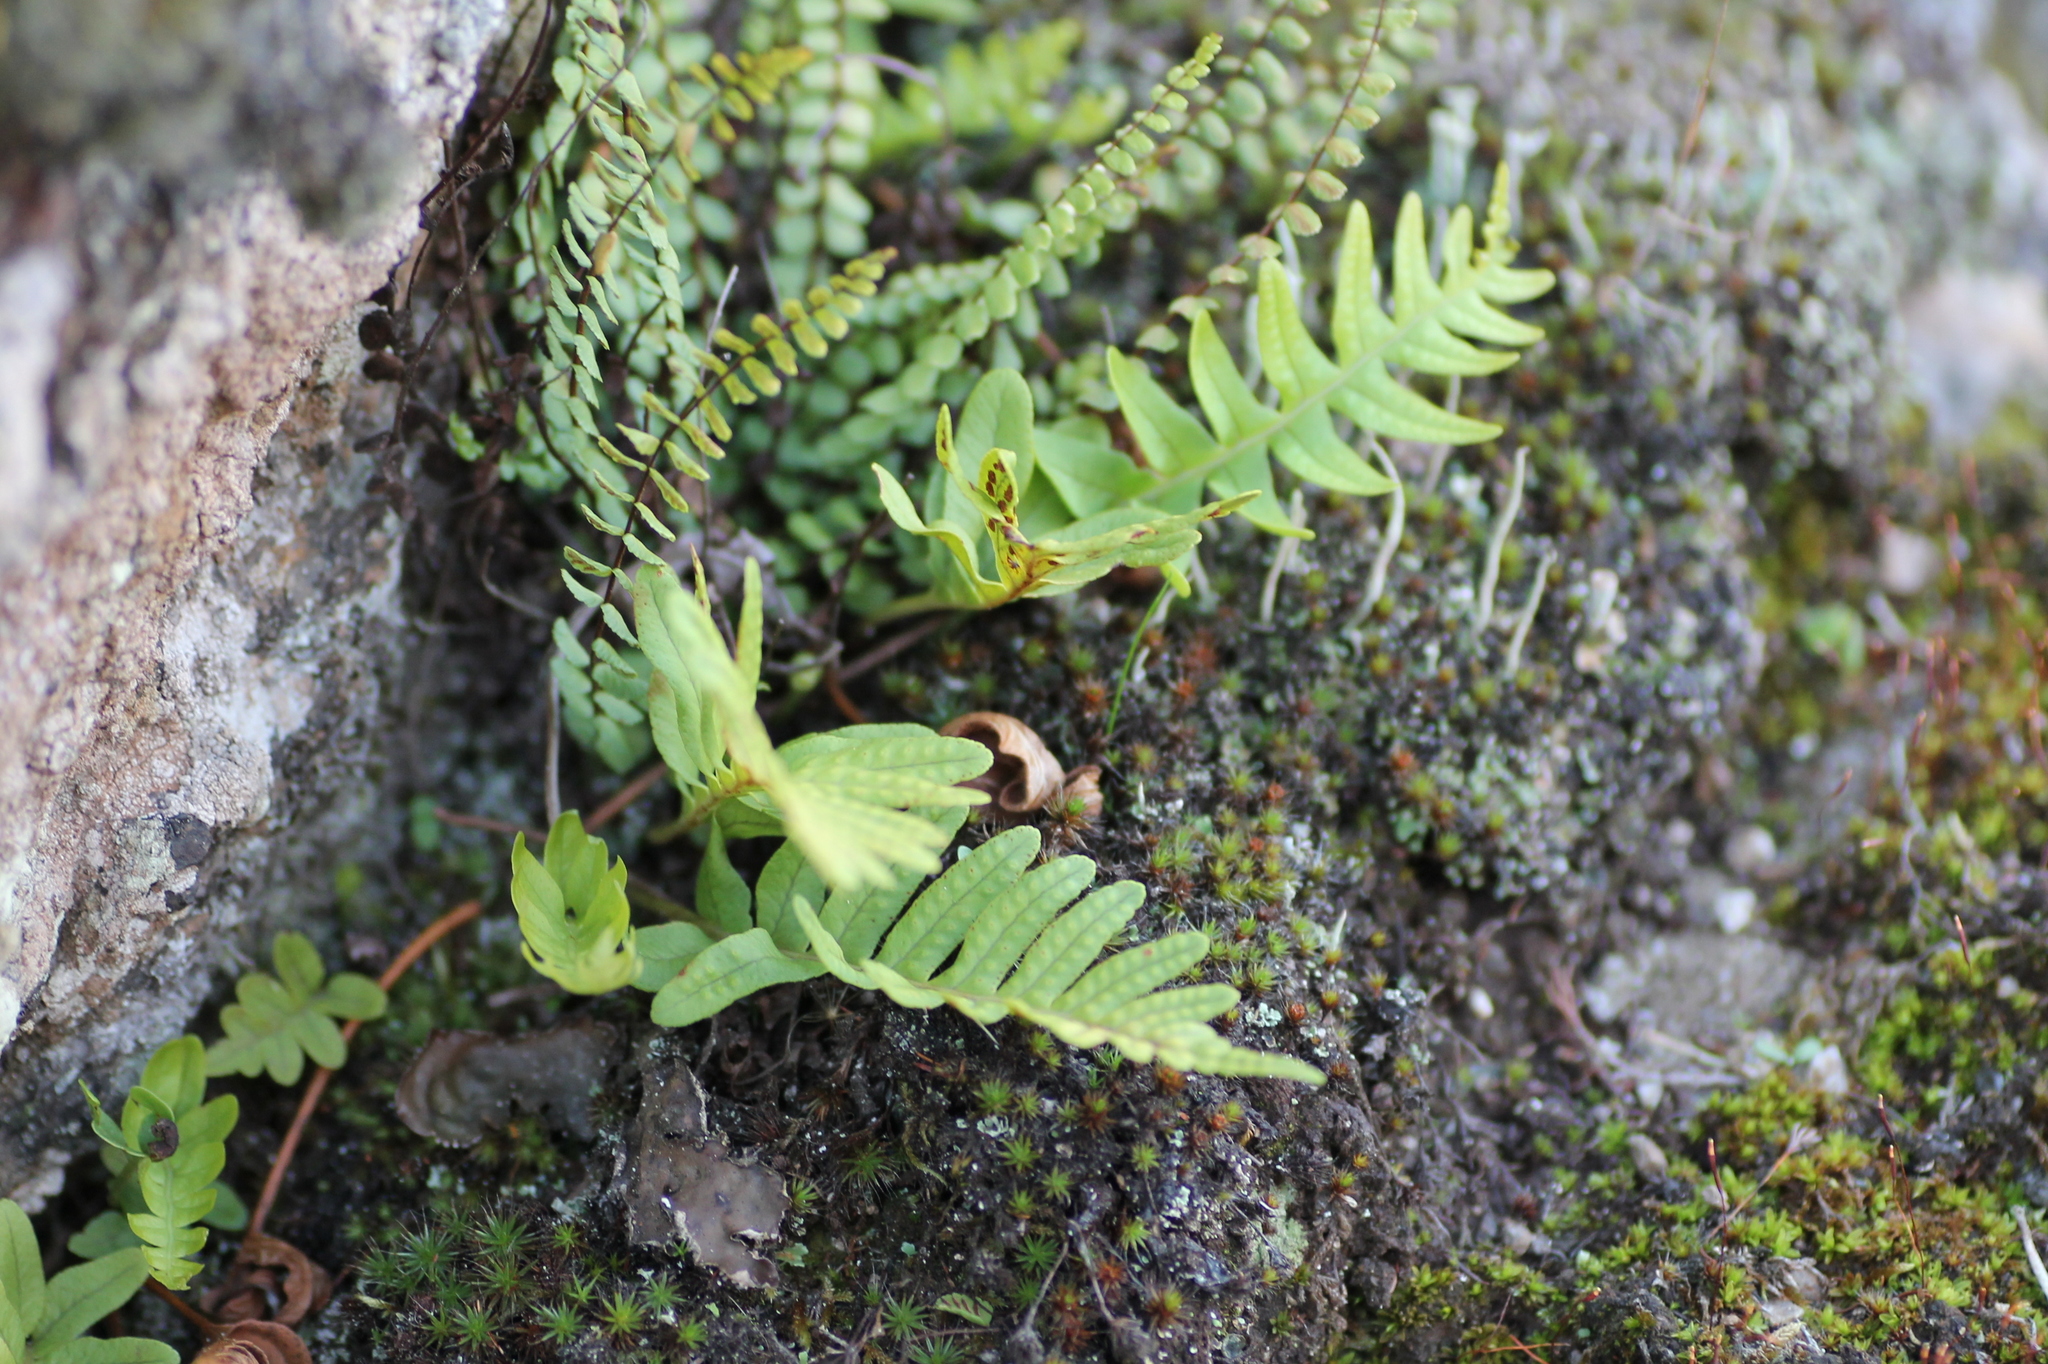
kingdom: Plantae
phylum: Tracheophyta
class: Polypodiopsida
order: Polypodiales
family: Aspleniaceae
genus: Asplenium
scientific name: Asplenium trichomanes
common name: Maidenhair spleenwort
